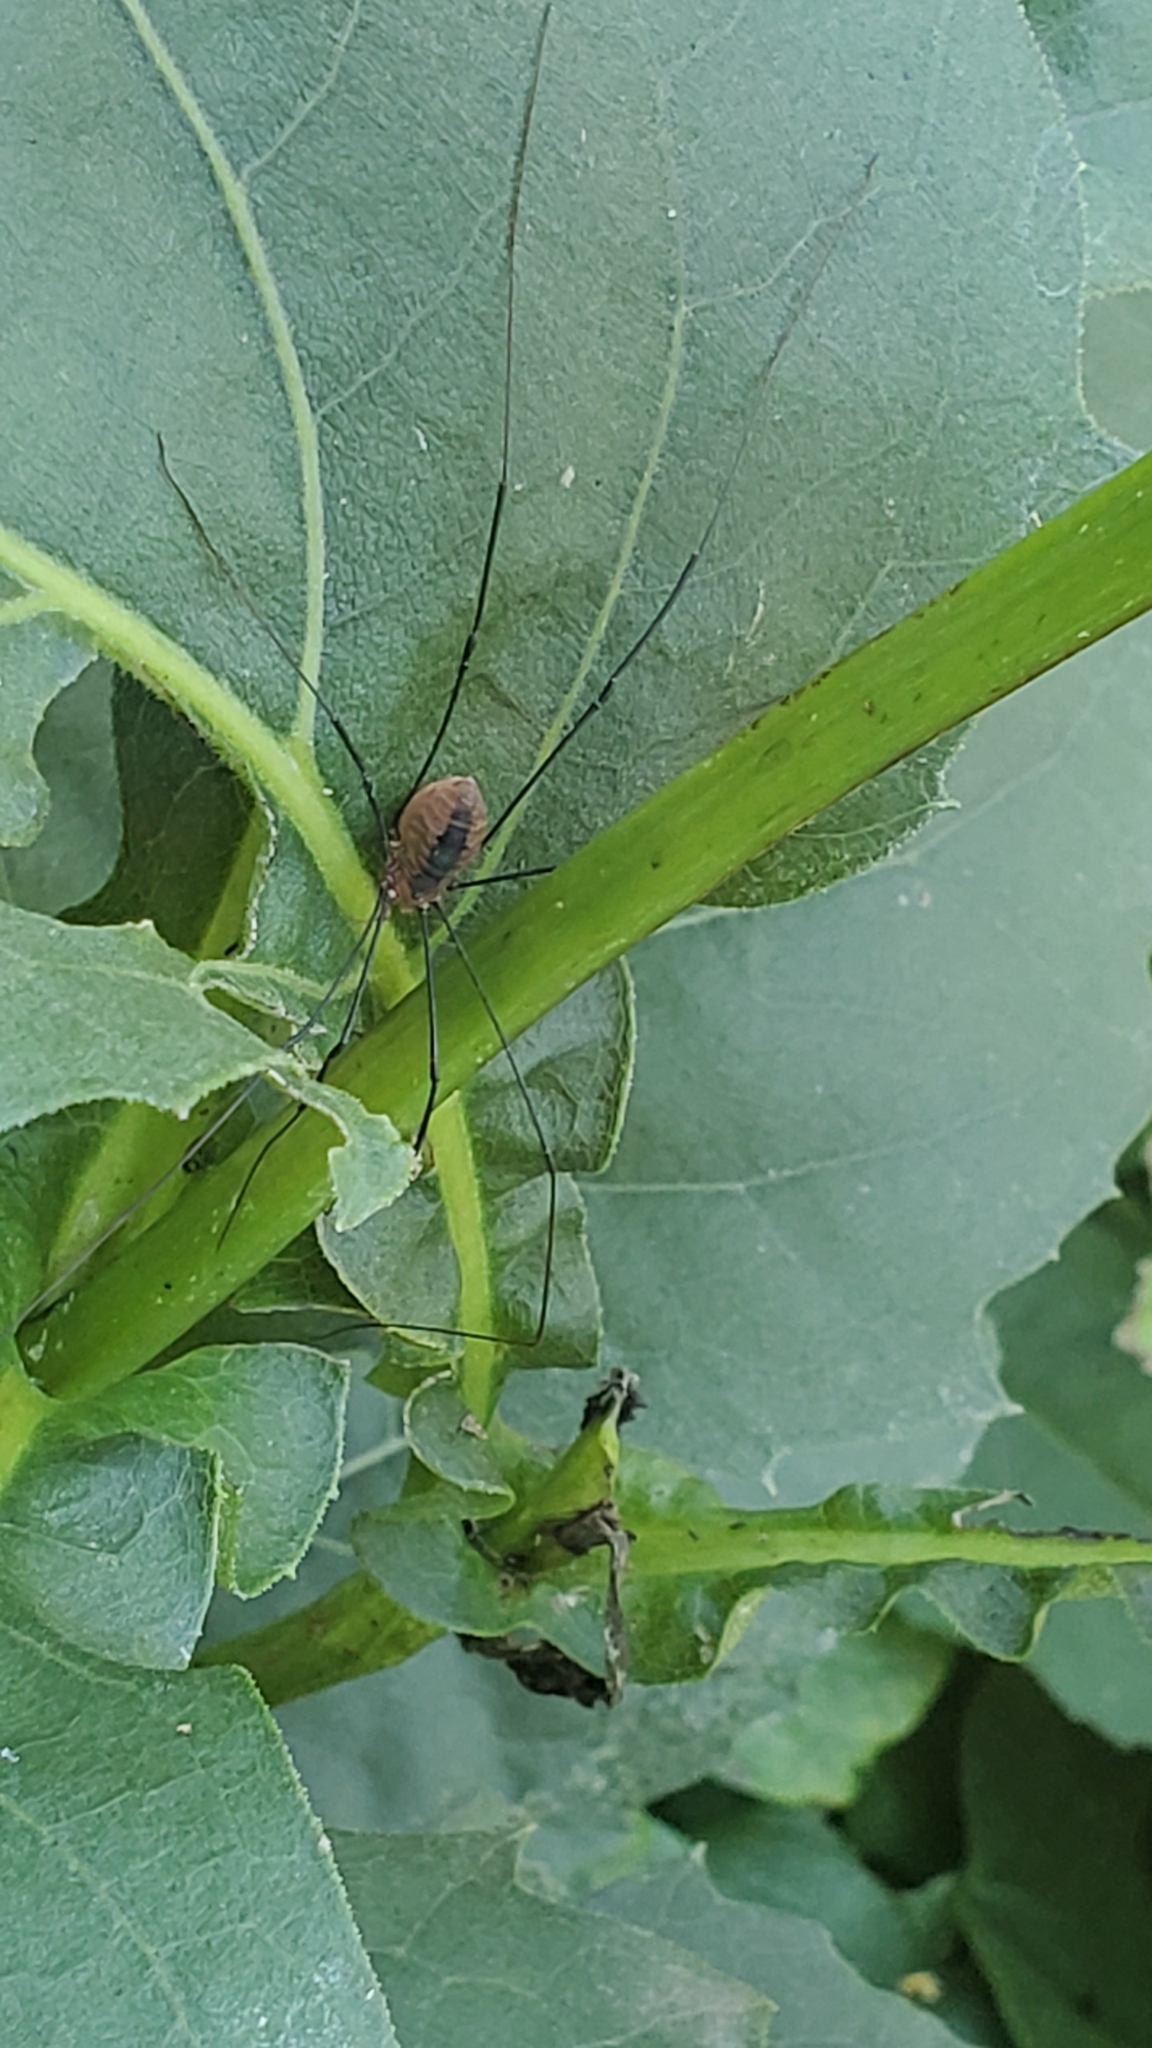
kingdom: Animalia
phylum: Arthropoda
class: Arachnida
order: Opiliones
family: Sclerosomatidae
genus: Leiobunum
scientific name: Leiobunum vittatum
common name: Eastern harvestman
